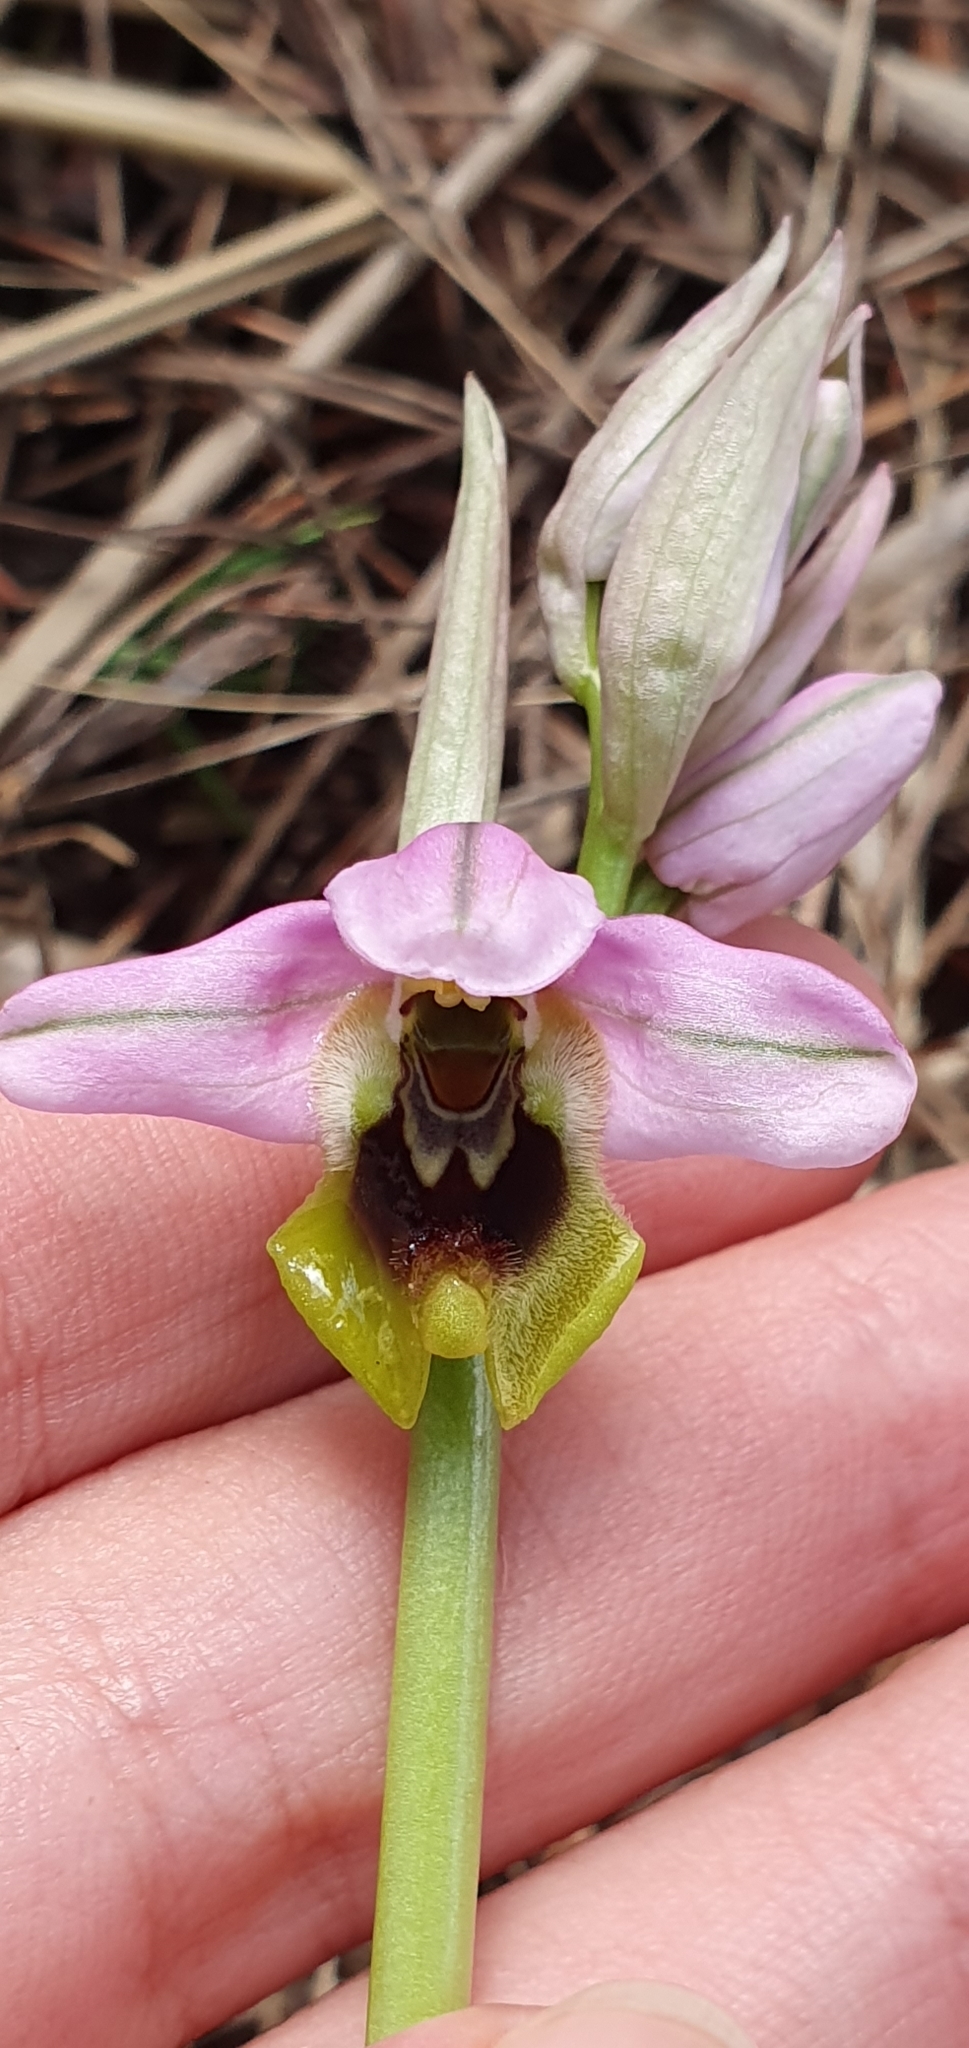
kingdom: Plantae
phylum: Tracheophyta
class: Liliopsida
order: Asparagales
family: Orchidaceae
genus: Ophrys
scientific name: Ophrys tenthredinifera
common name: Sawfly orchid
